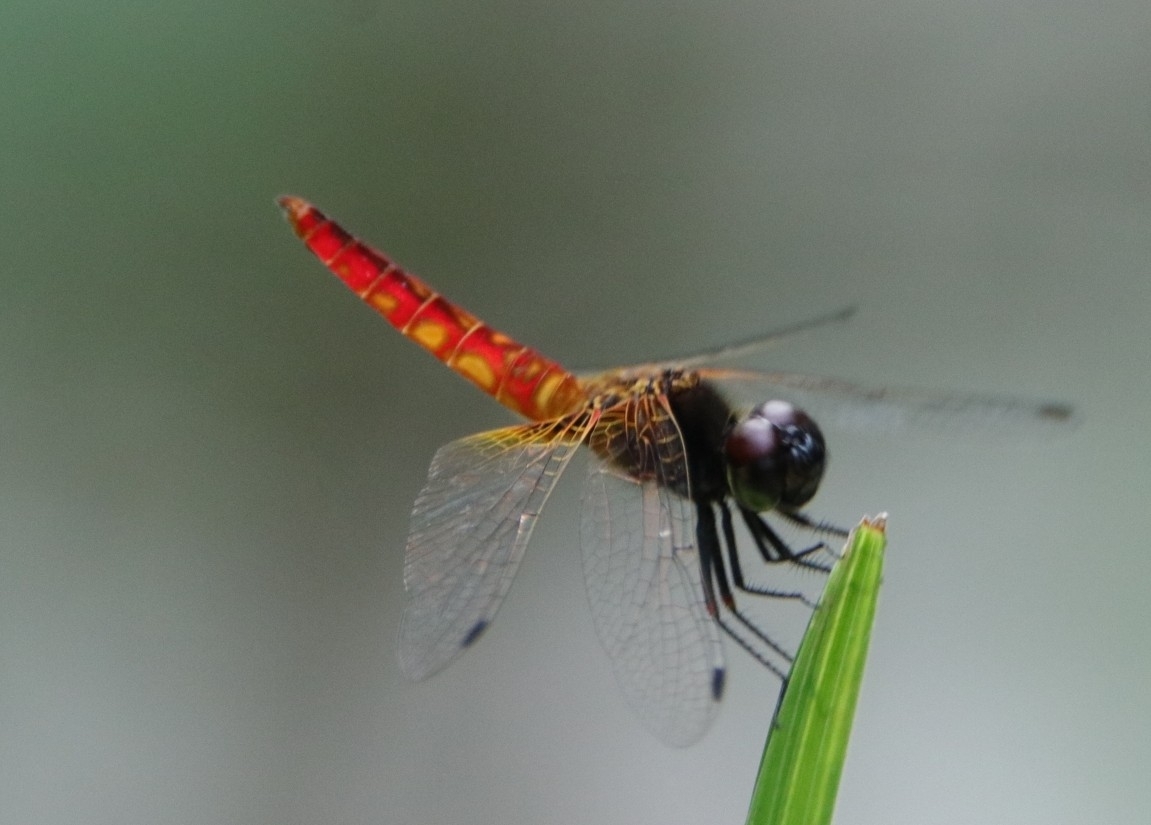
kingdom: Animalia
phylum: Arthropoda
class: Insecta
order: Odonata
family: Libellulidae
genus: Aethriamanta
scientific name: Aethriamanta brevipennis
